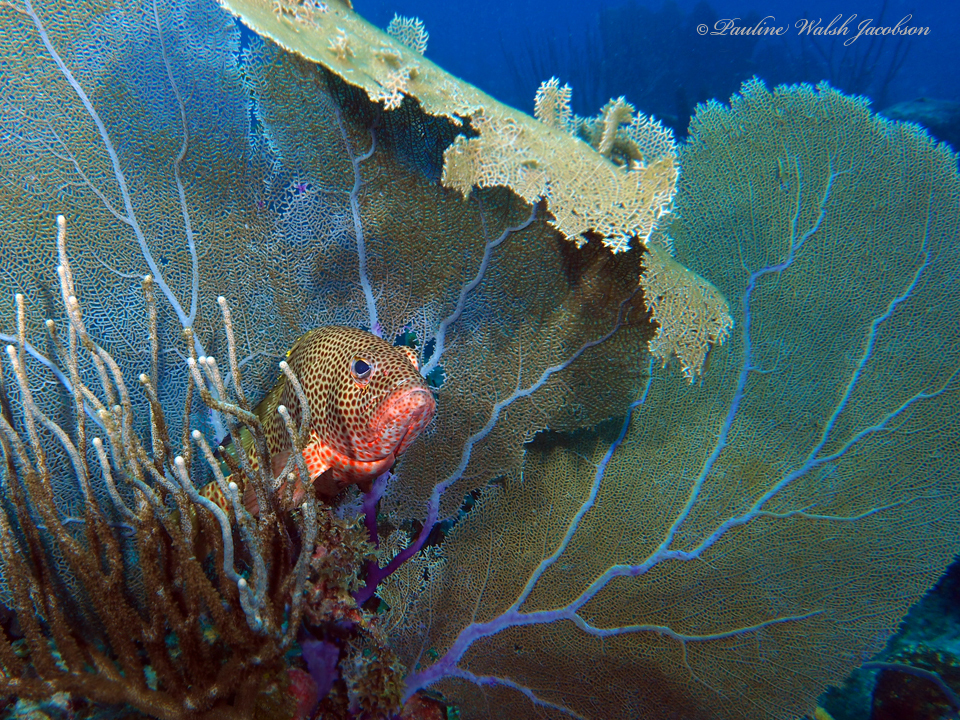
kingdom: Animalia
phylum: Chordata
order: Perciformes
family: Serranidae
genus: Epinephelus
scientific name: Epinephelus guttatus
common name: Red hind
